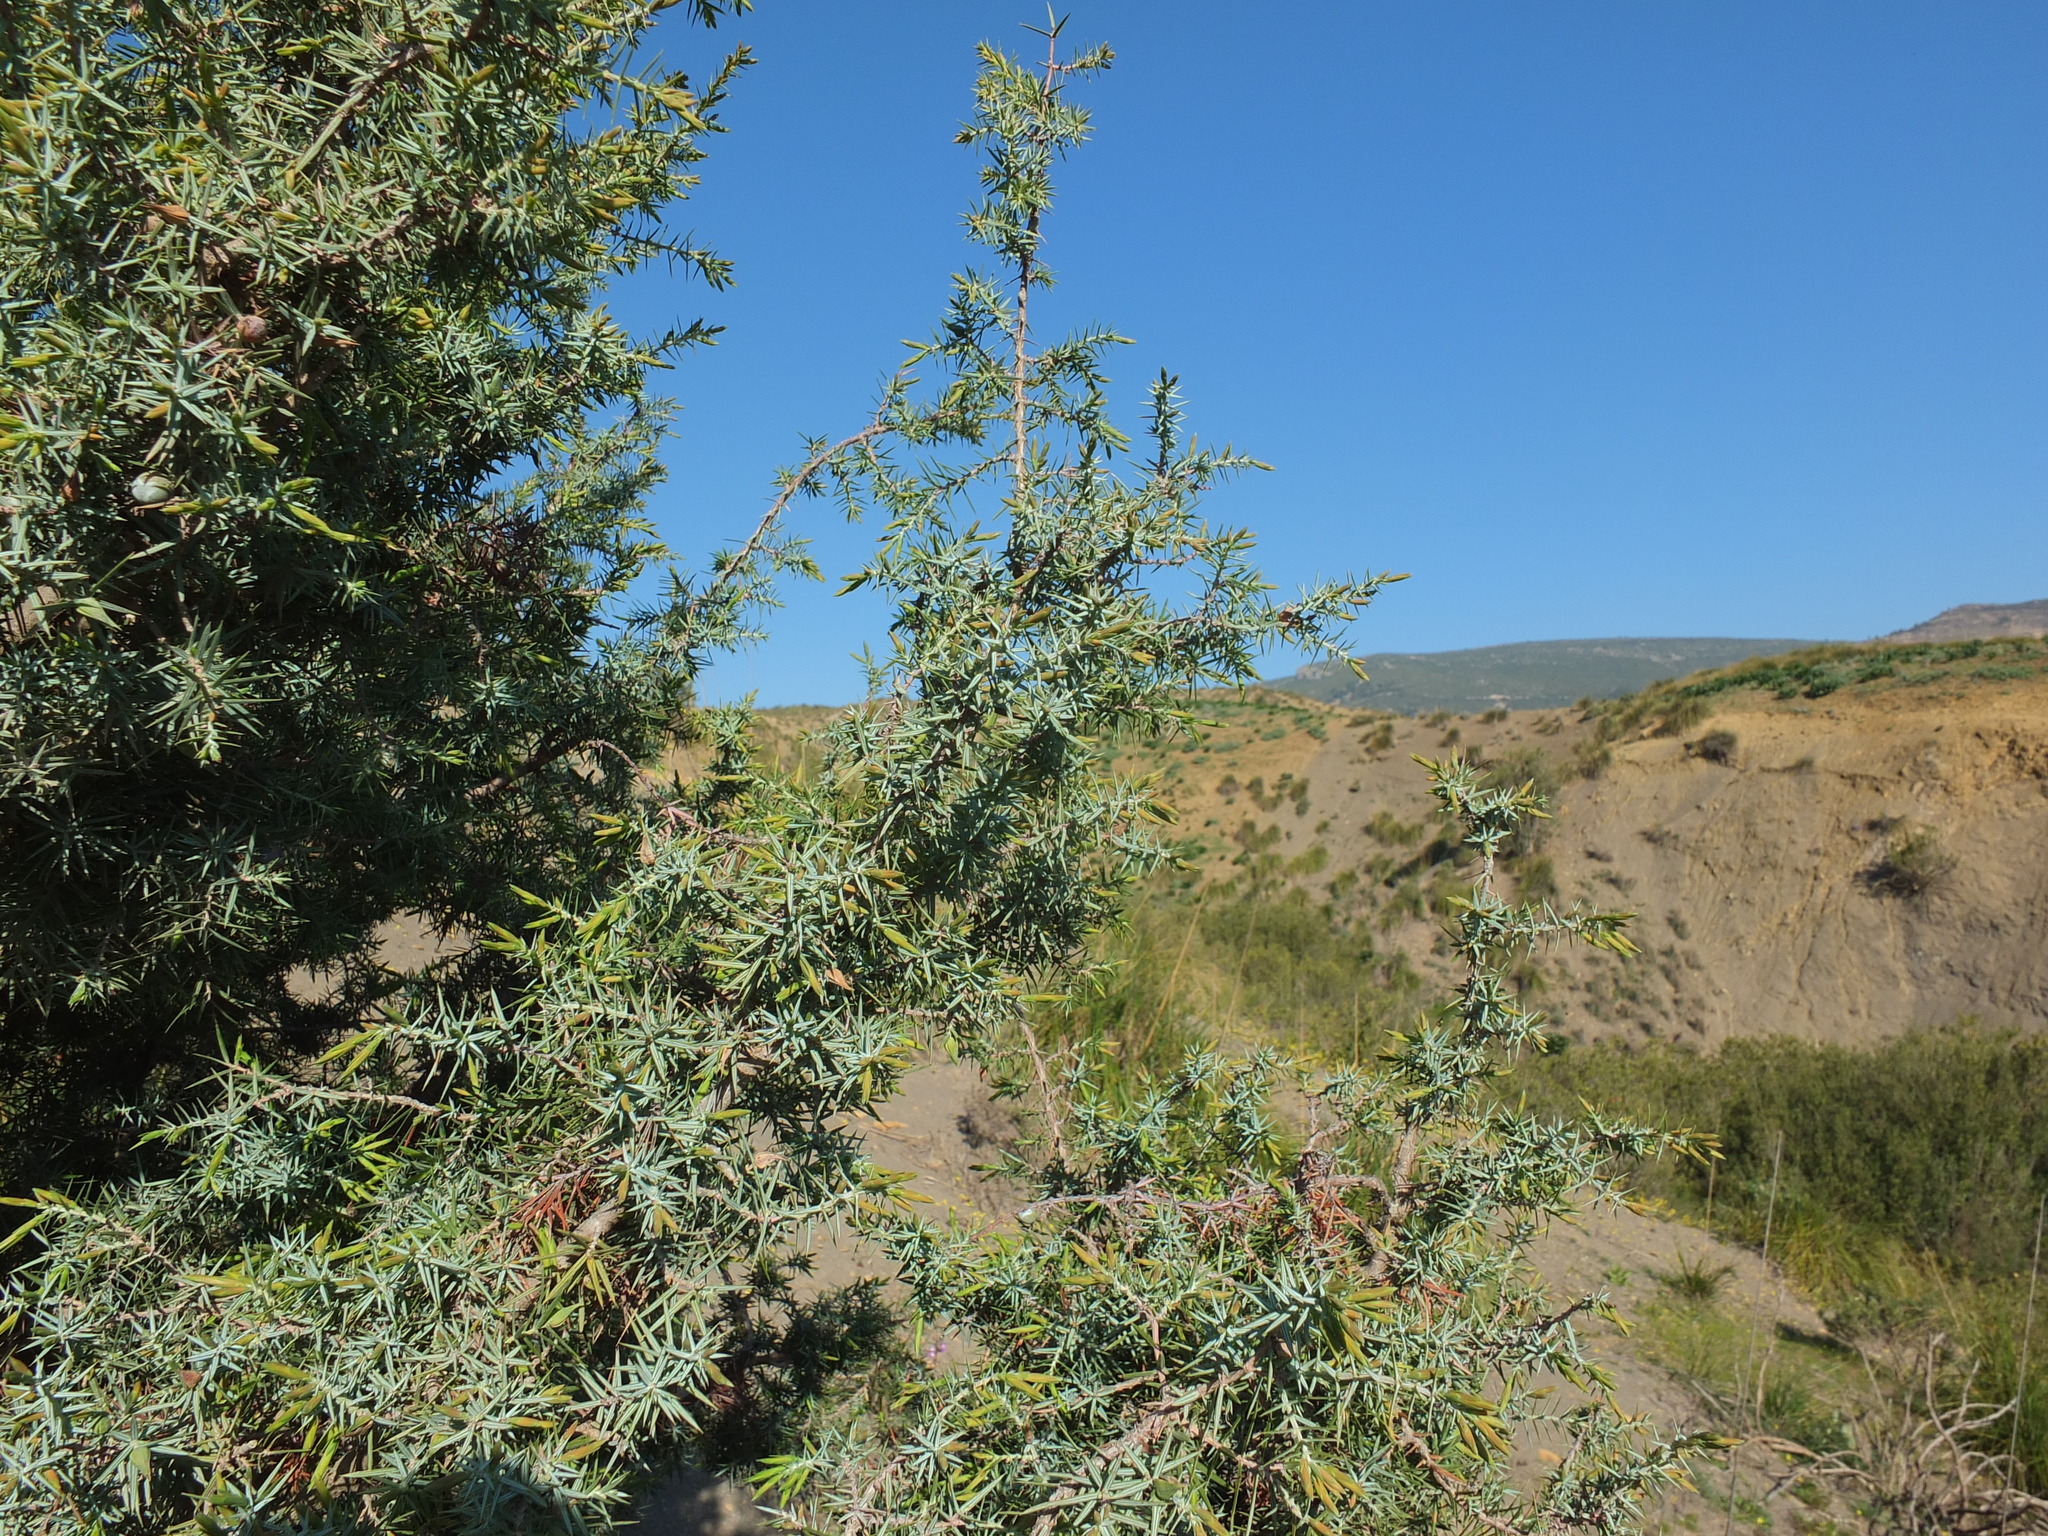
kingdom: Plantae
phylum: Tracheophyta
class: Pinopsida
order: Pinales
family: Cupressaceae
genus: Juniperus
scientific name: Juniperus oxycedrus
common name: Prickly juniper
